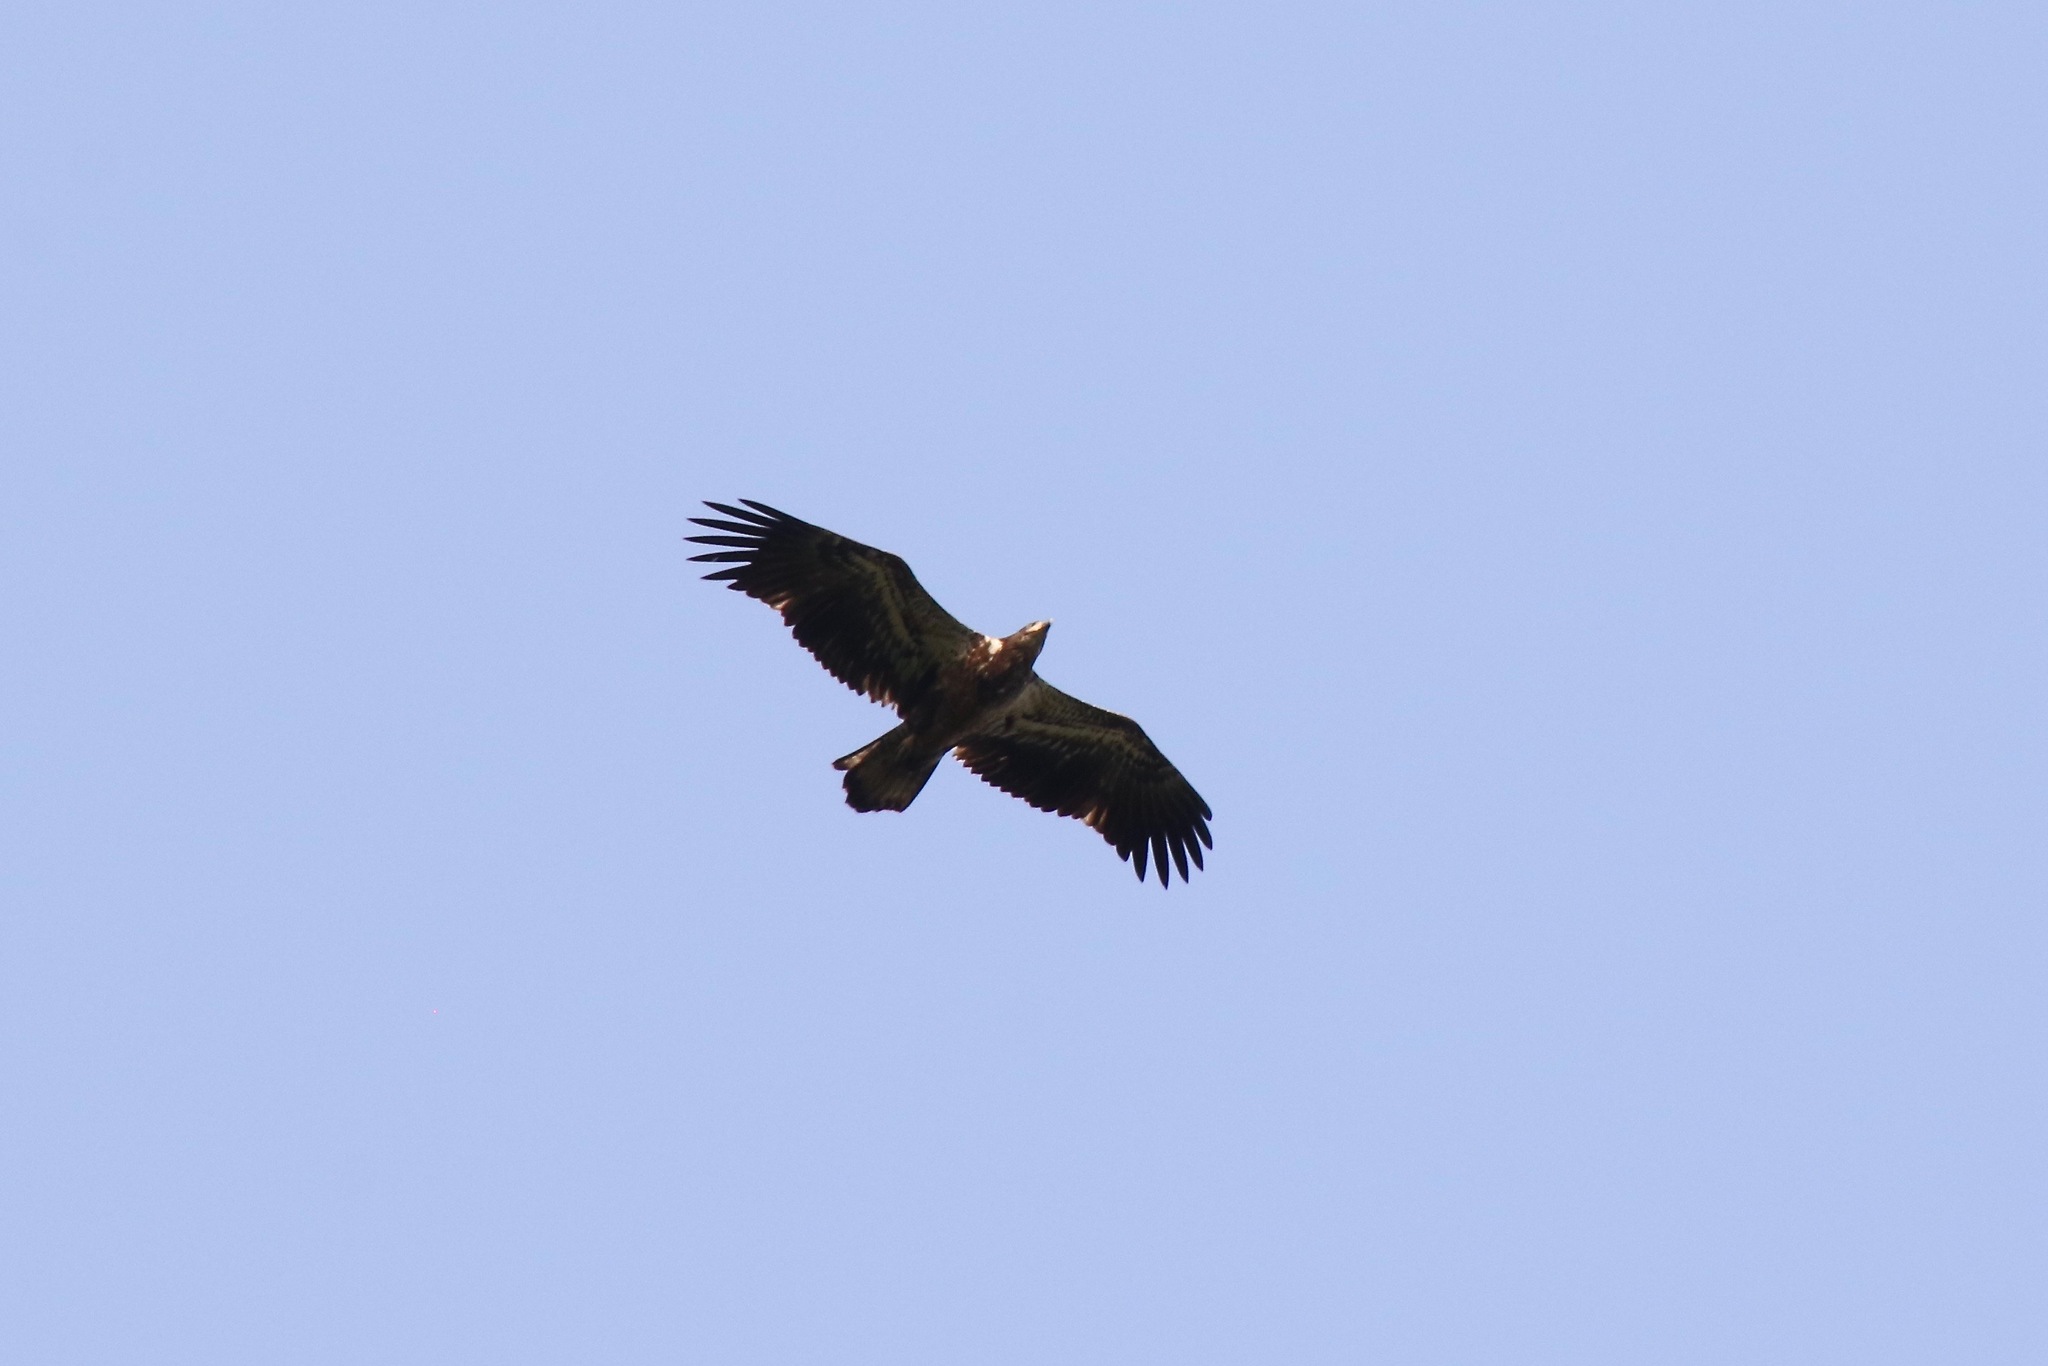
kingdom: Animalia
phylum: Chordata
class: Aves
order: Accipitriformes
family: Accipitridae
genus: Haliaeetus
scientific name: Haliaeetus leucocephalus
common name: Bald eagle
